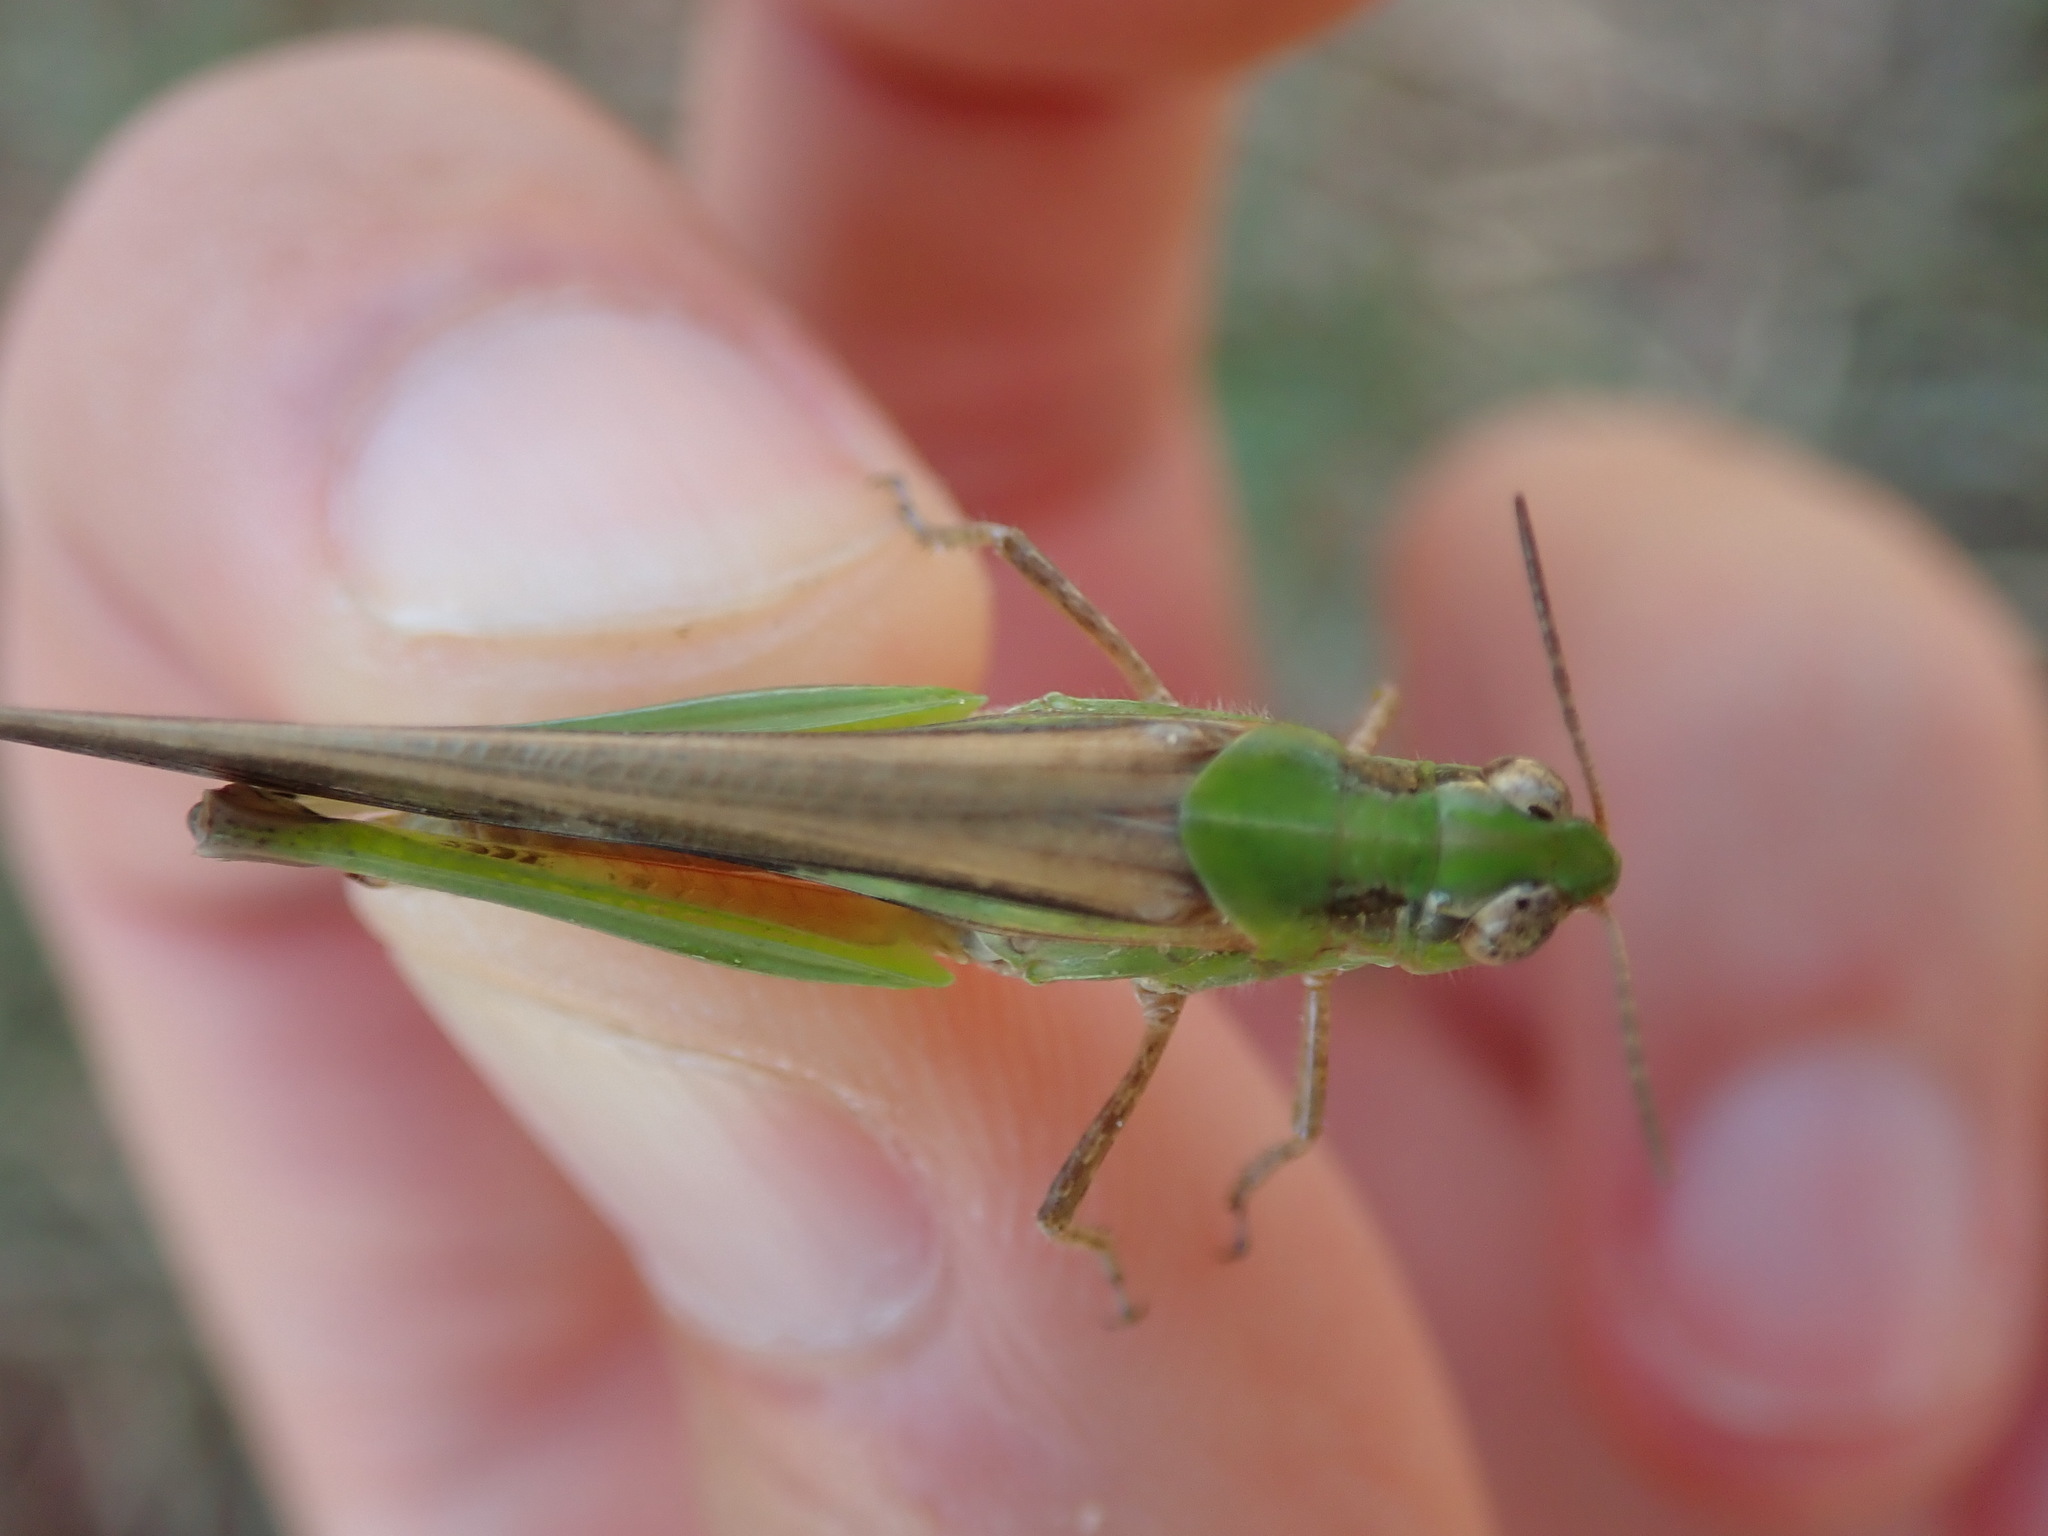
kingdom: Animalia
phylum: Arthropoda
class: Insecta
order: Orthoptera
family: Acrididae
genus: Aiolopus
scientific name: Aiolopus puissanti
